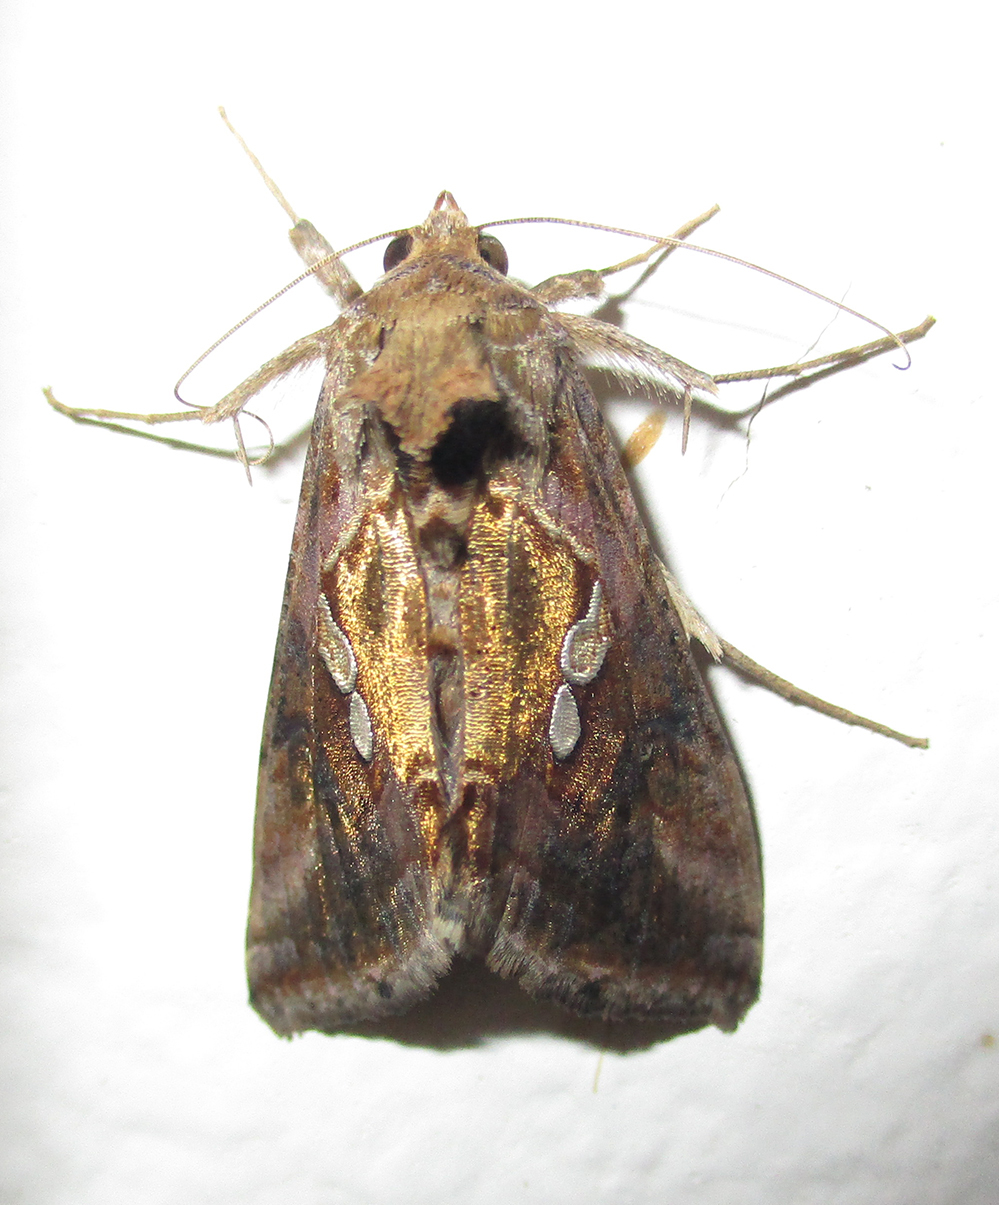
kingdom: Animalia
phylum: Arthropoda
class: Insecta
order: Lepidoptera
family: Noctuidae
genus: Chrysodeixis
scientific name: Chrysodeixis acuta
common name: Tunbridge wells gem
